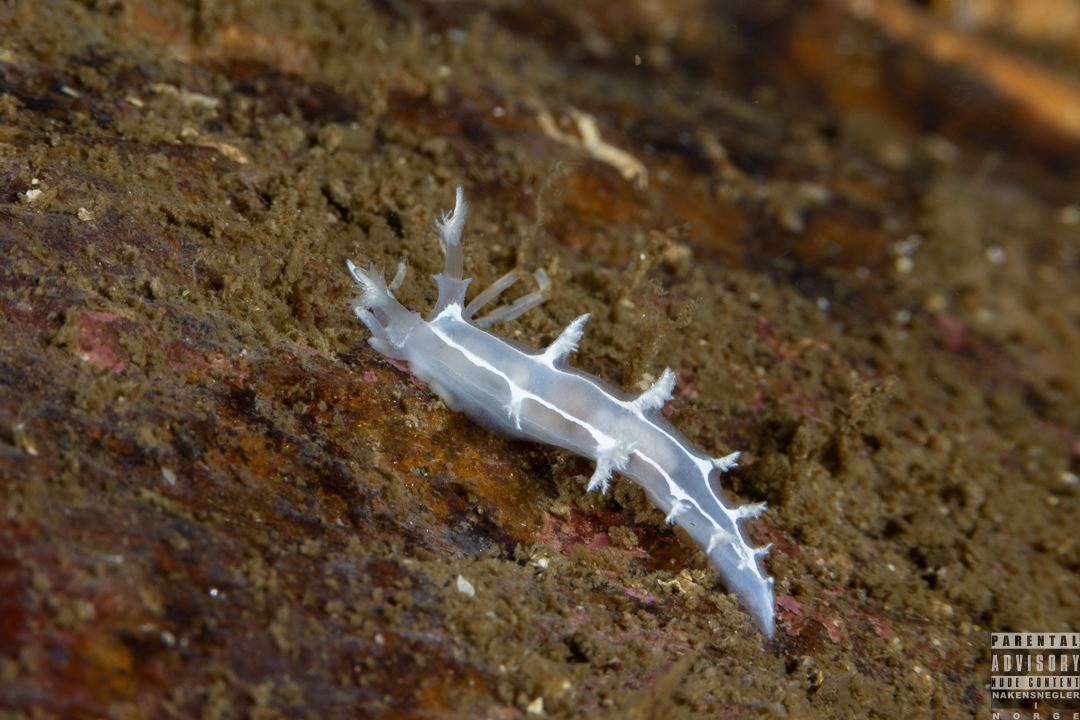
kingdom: Animalia
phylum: Mollusca
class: Gastropoda
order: Nudibranchia
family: Tritoniidae
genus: Duvaucelia
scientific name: Duvaucelia lineata
